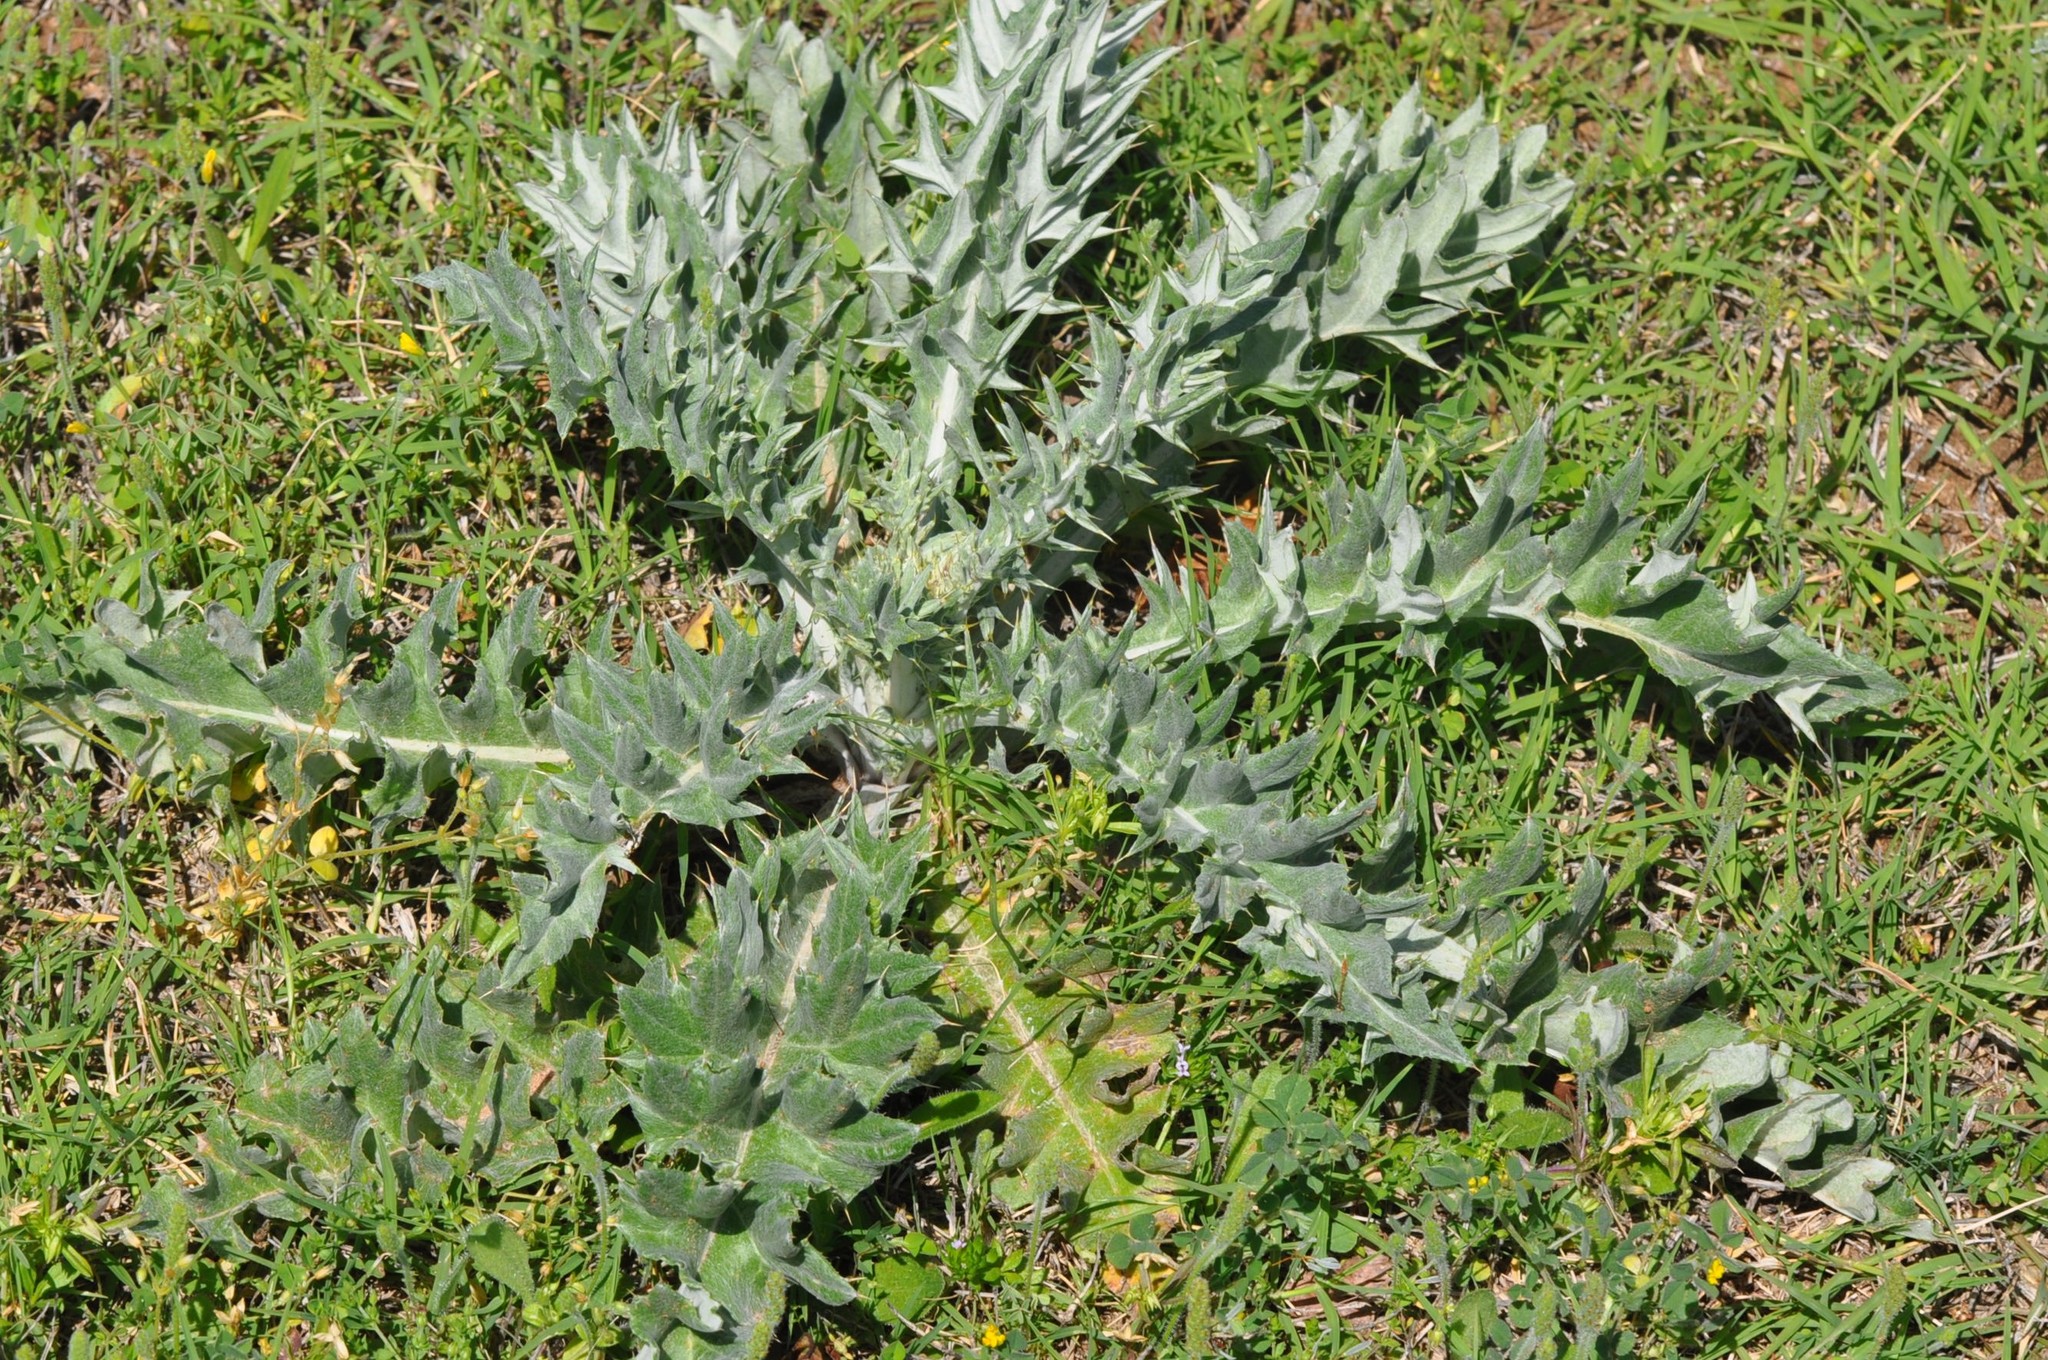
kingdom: Plantae
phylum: Tracheophyta
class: Magnoliopsida
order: Asterales
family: Asteraceae
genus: Cirsium
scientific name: Cirsium undulatum
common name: Pasture thistle
